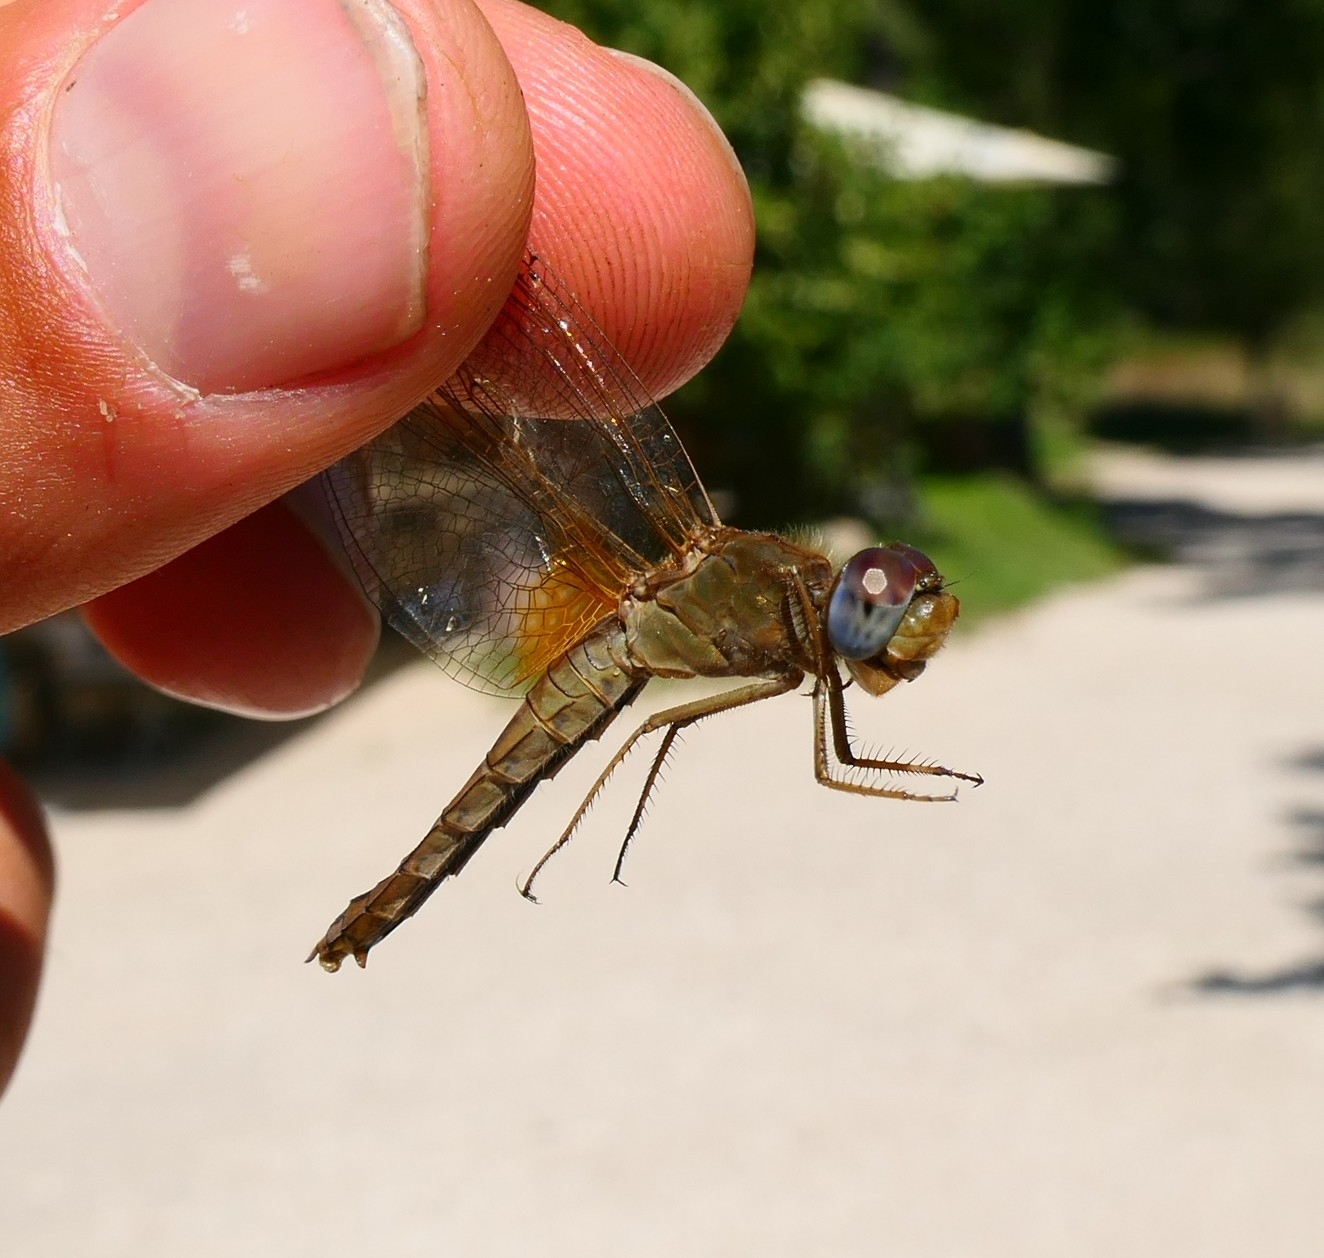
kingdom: Animalia
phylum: Arthropoda
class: Insecta
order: Odonata
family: Libellulidae
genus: Crocothemis
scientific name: Crocothemis erythraea
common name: Scarlet dragonfly
